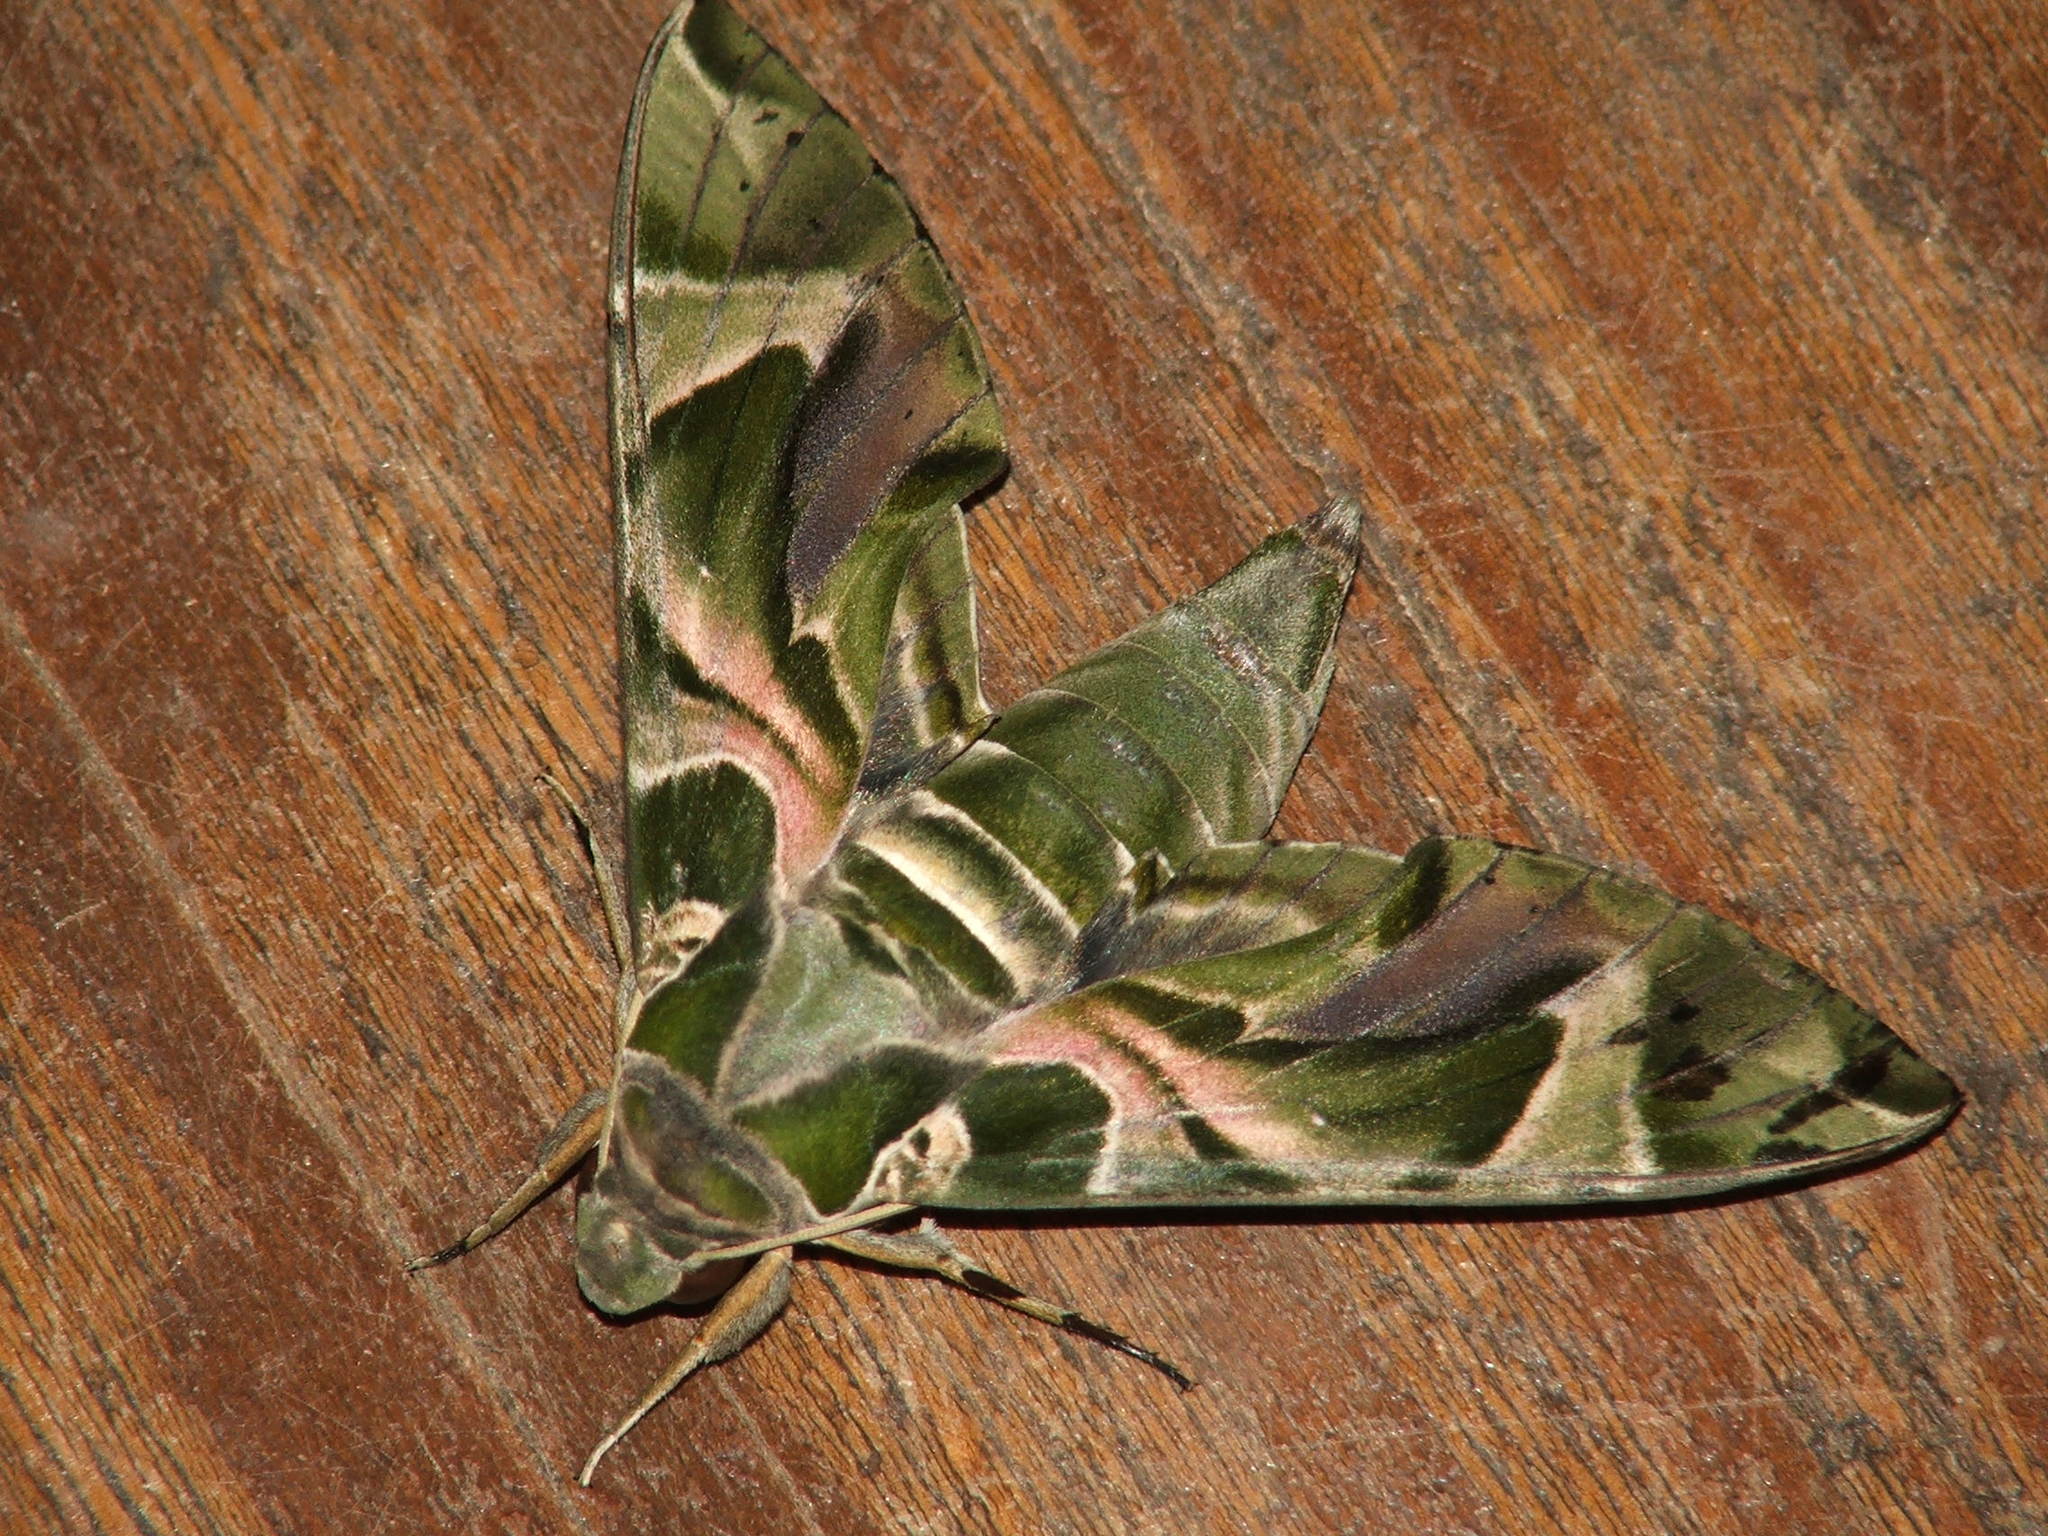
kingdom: Animalia
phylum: Arthropoda
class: Insecta
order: Lepidoptera
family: Sphingidae
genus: Daphnis
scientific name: Daphnis nerii
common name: Oleander hawk-moth
